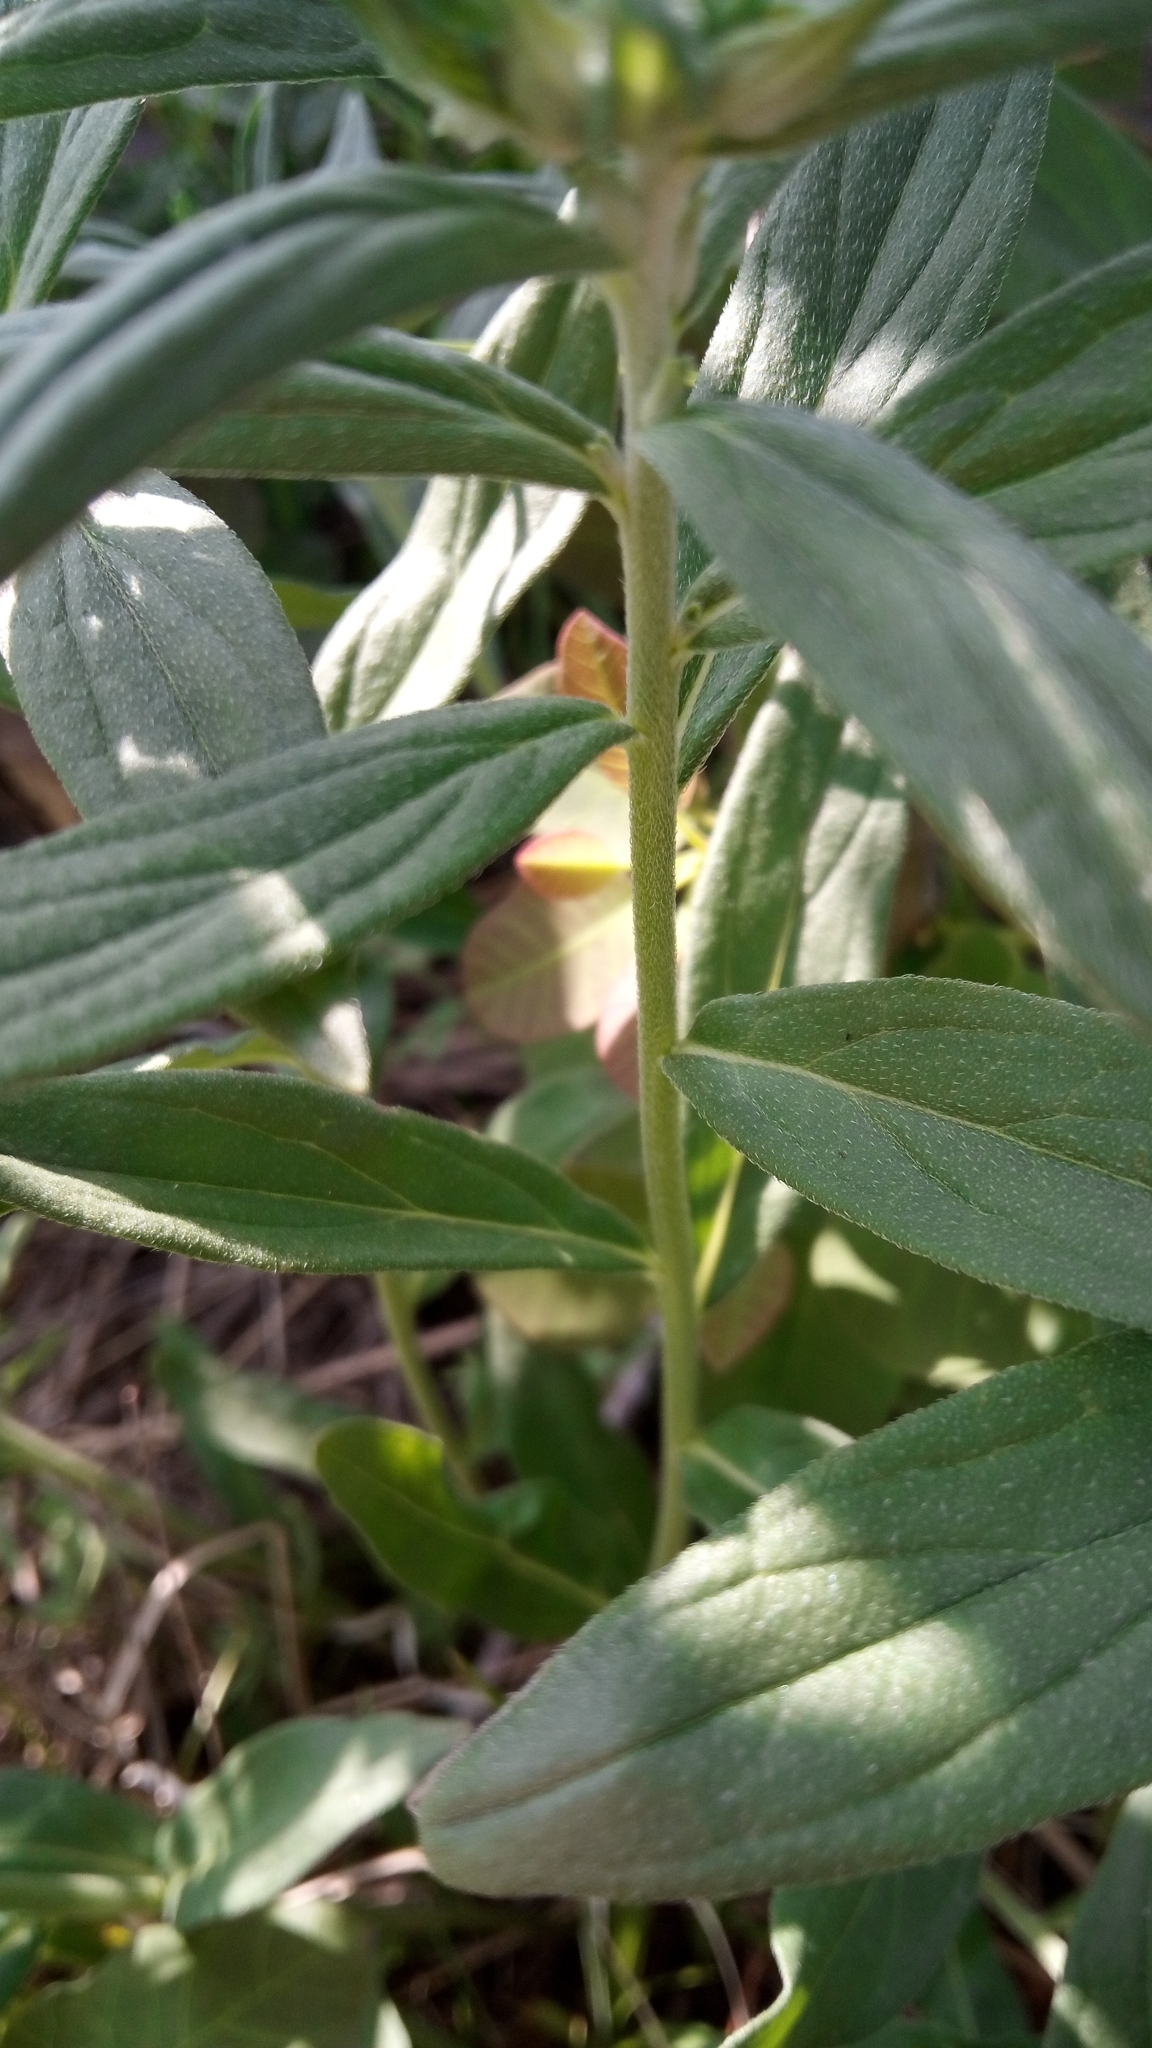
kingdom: Plantae
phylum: Tracheophyta
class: Magnoliopsida
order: Boraginales
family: Boraginaceae
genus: Lithospermum
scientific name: Lithospermum officinale
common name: Common gromwell
